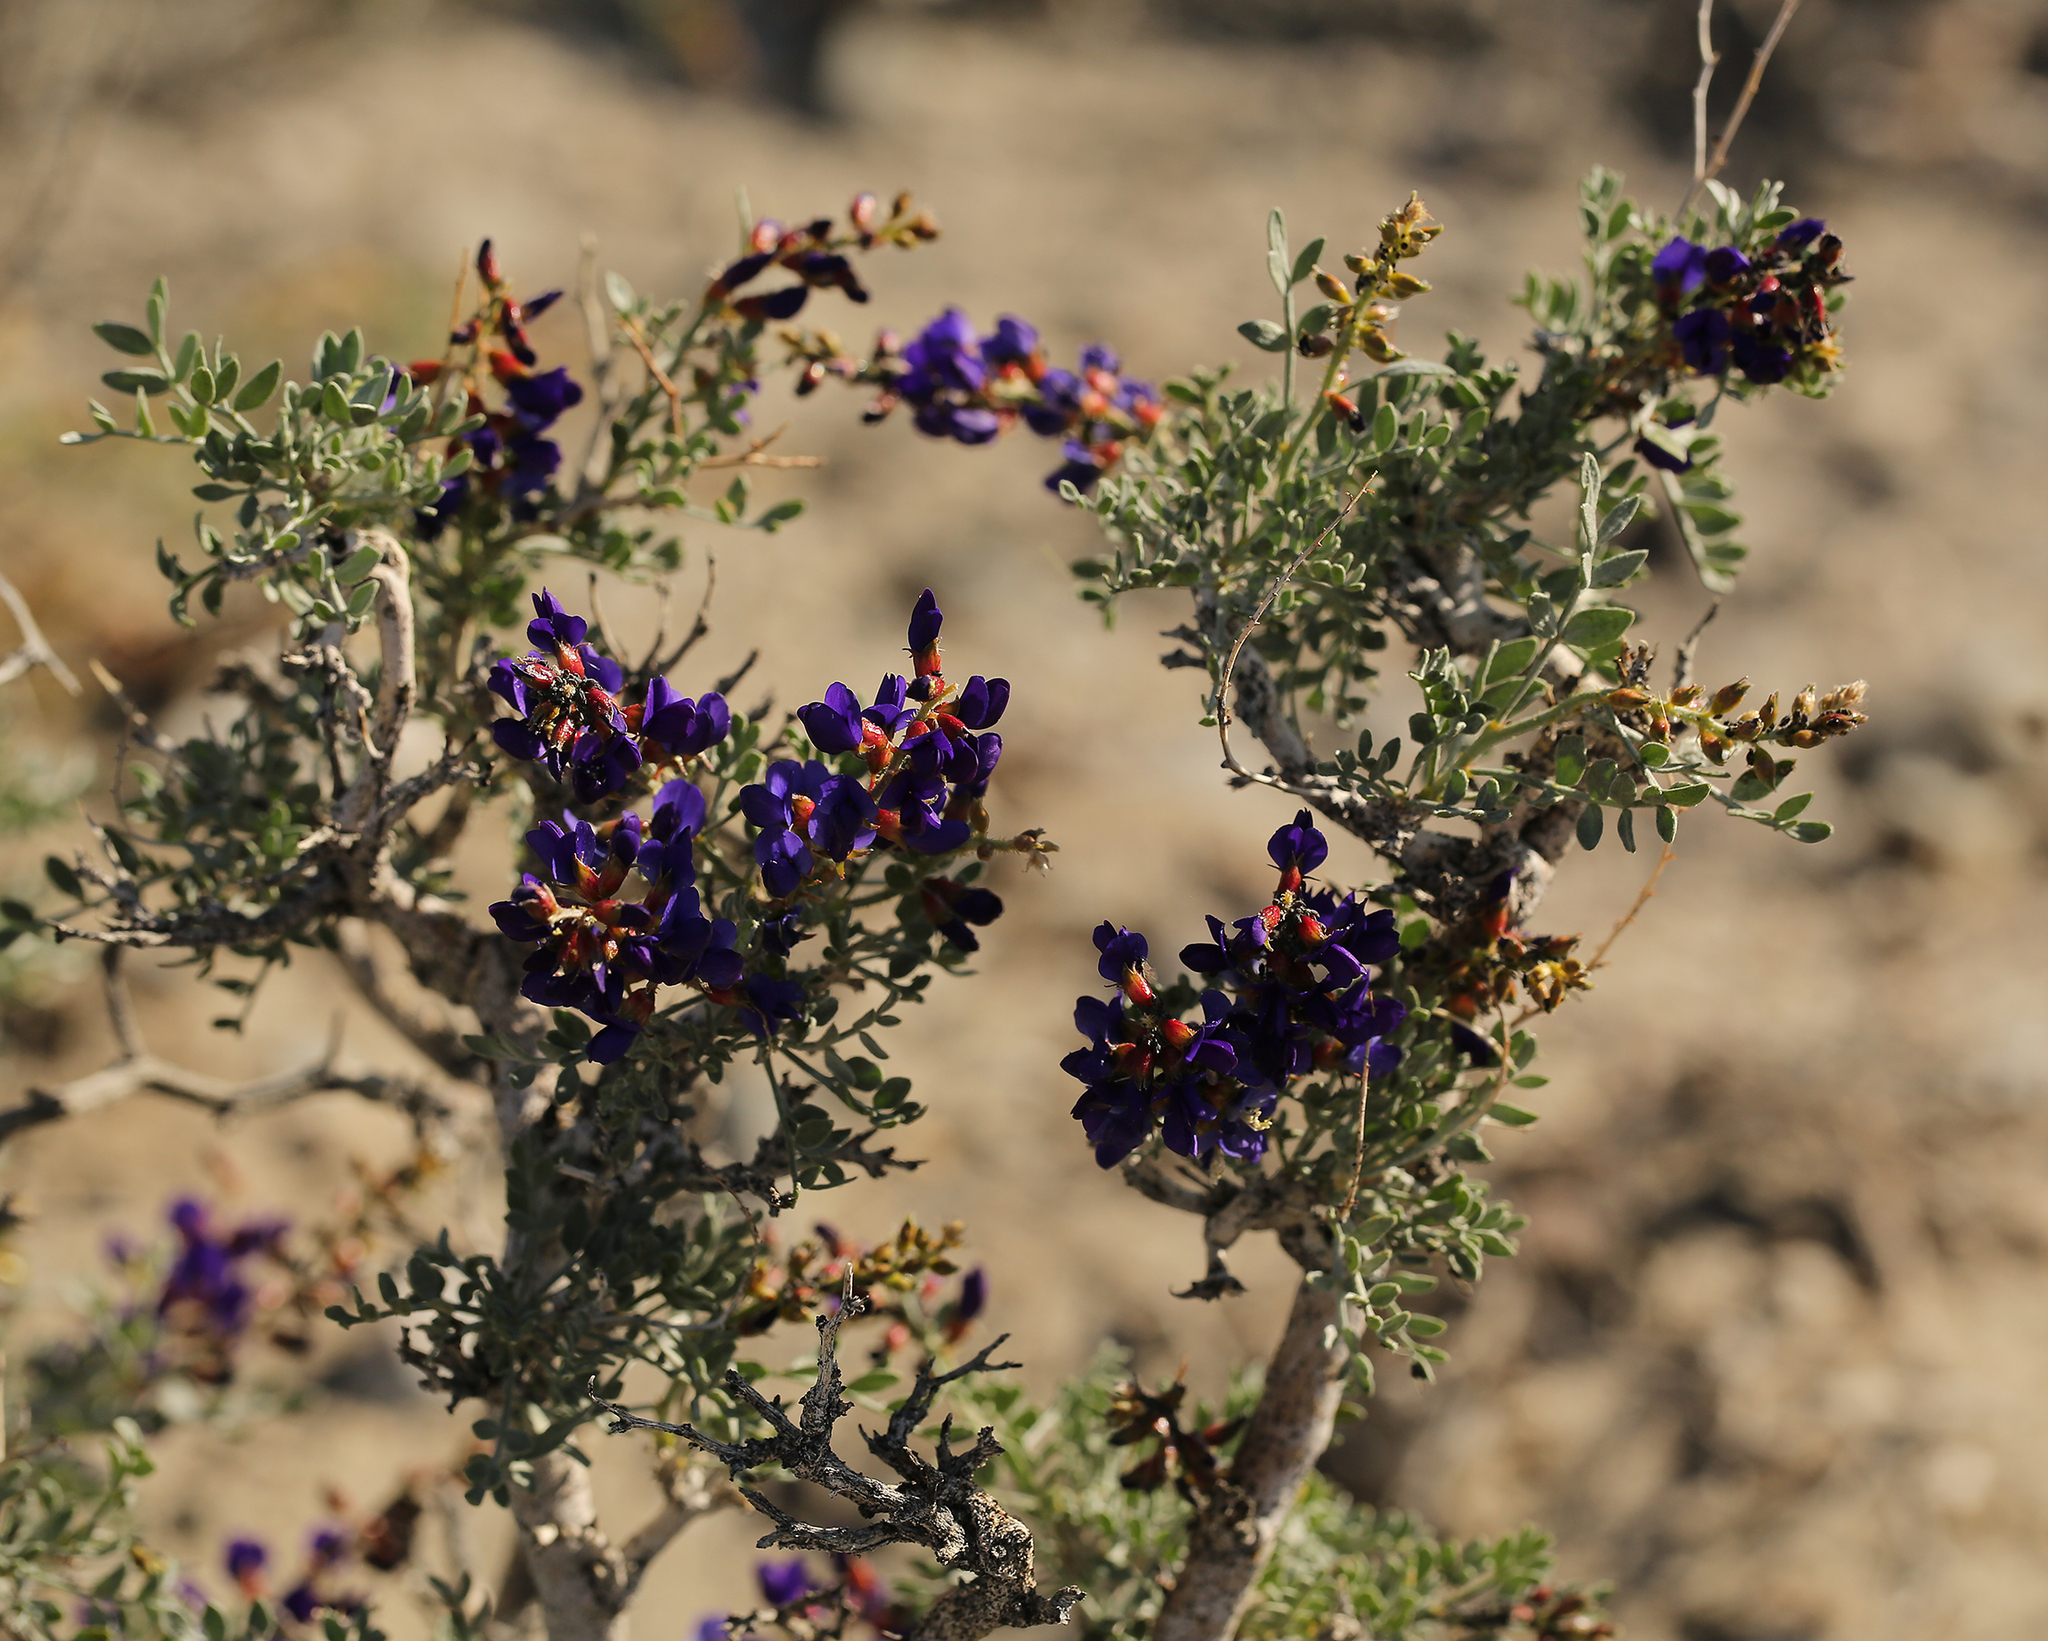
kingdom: Plantae
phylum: Tracheophyta
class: Magnoliopsida
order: Fabales
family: Fabaceae
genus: Psorothamnus
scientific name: Psorothamnus arborescens
